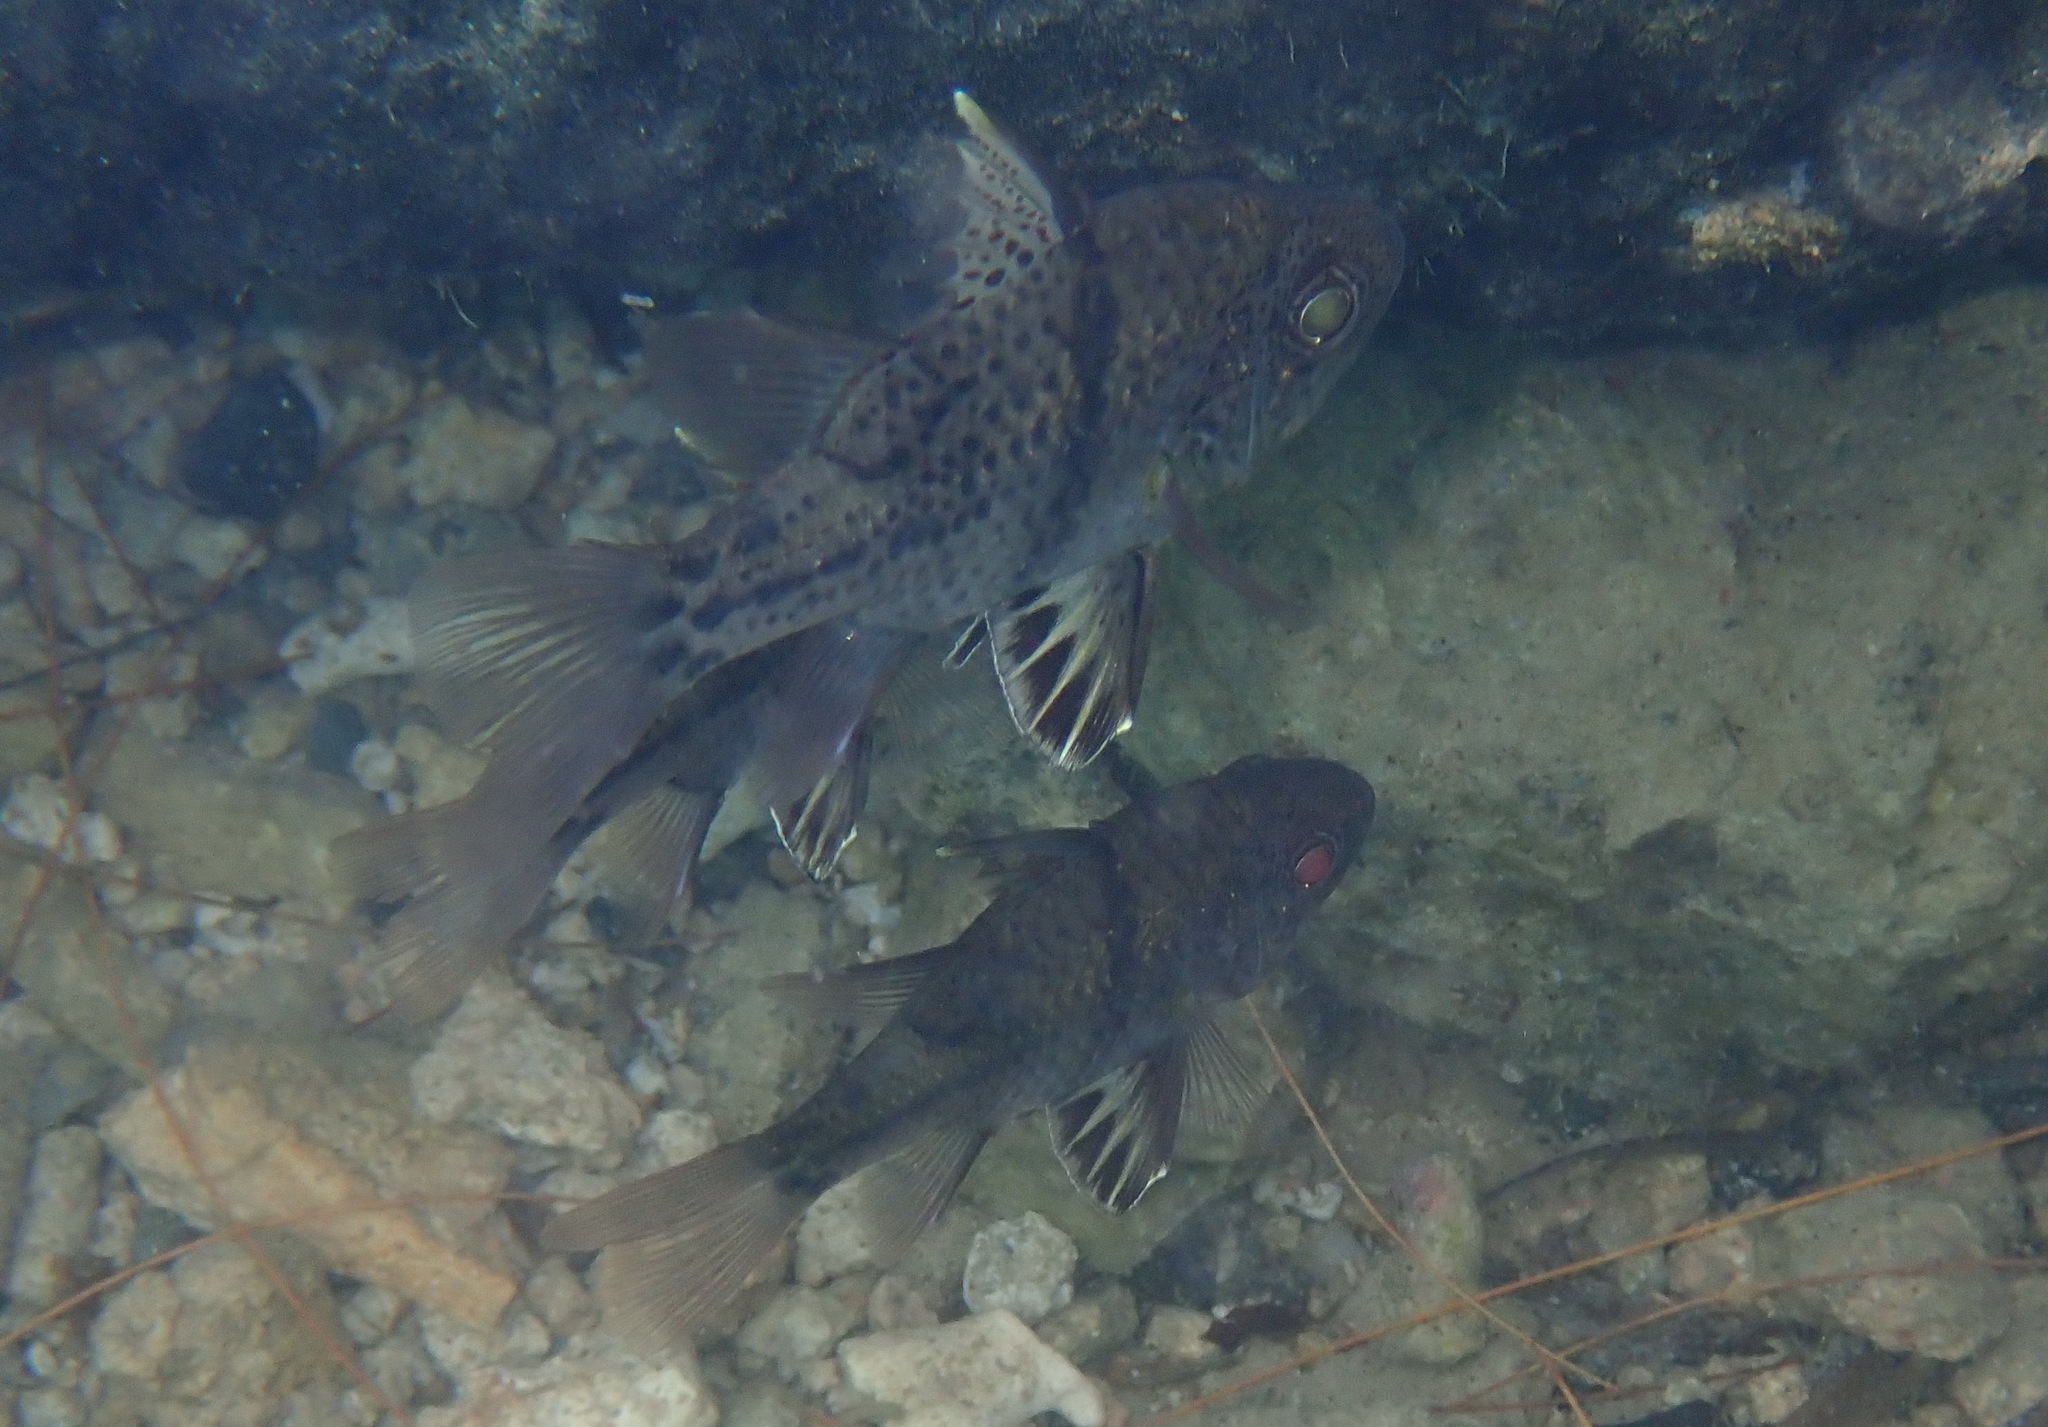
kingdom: Animalia
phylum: Chordata
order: Perciformes
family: Apogonidae
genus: Sphaeramia
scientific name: Sphaeramia orbicularis
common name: Polka-dot cardinalfish
